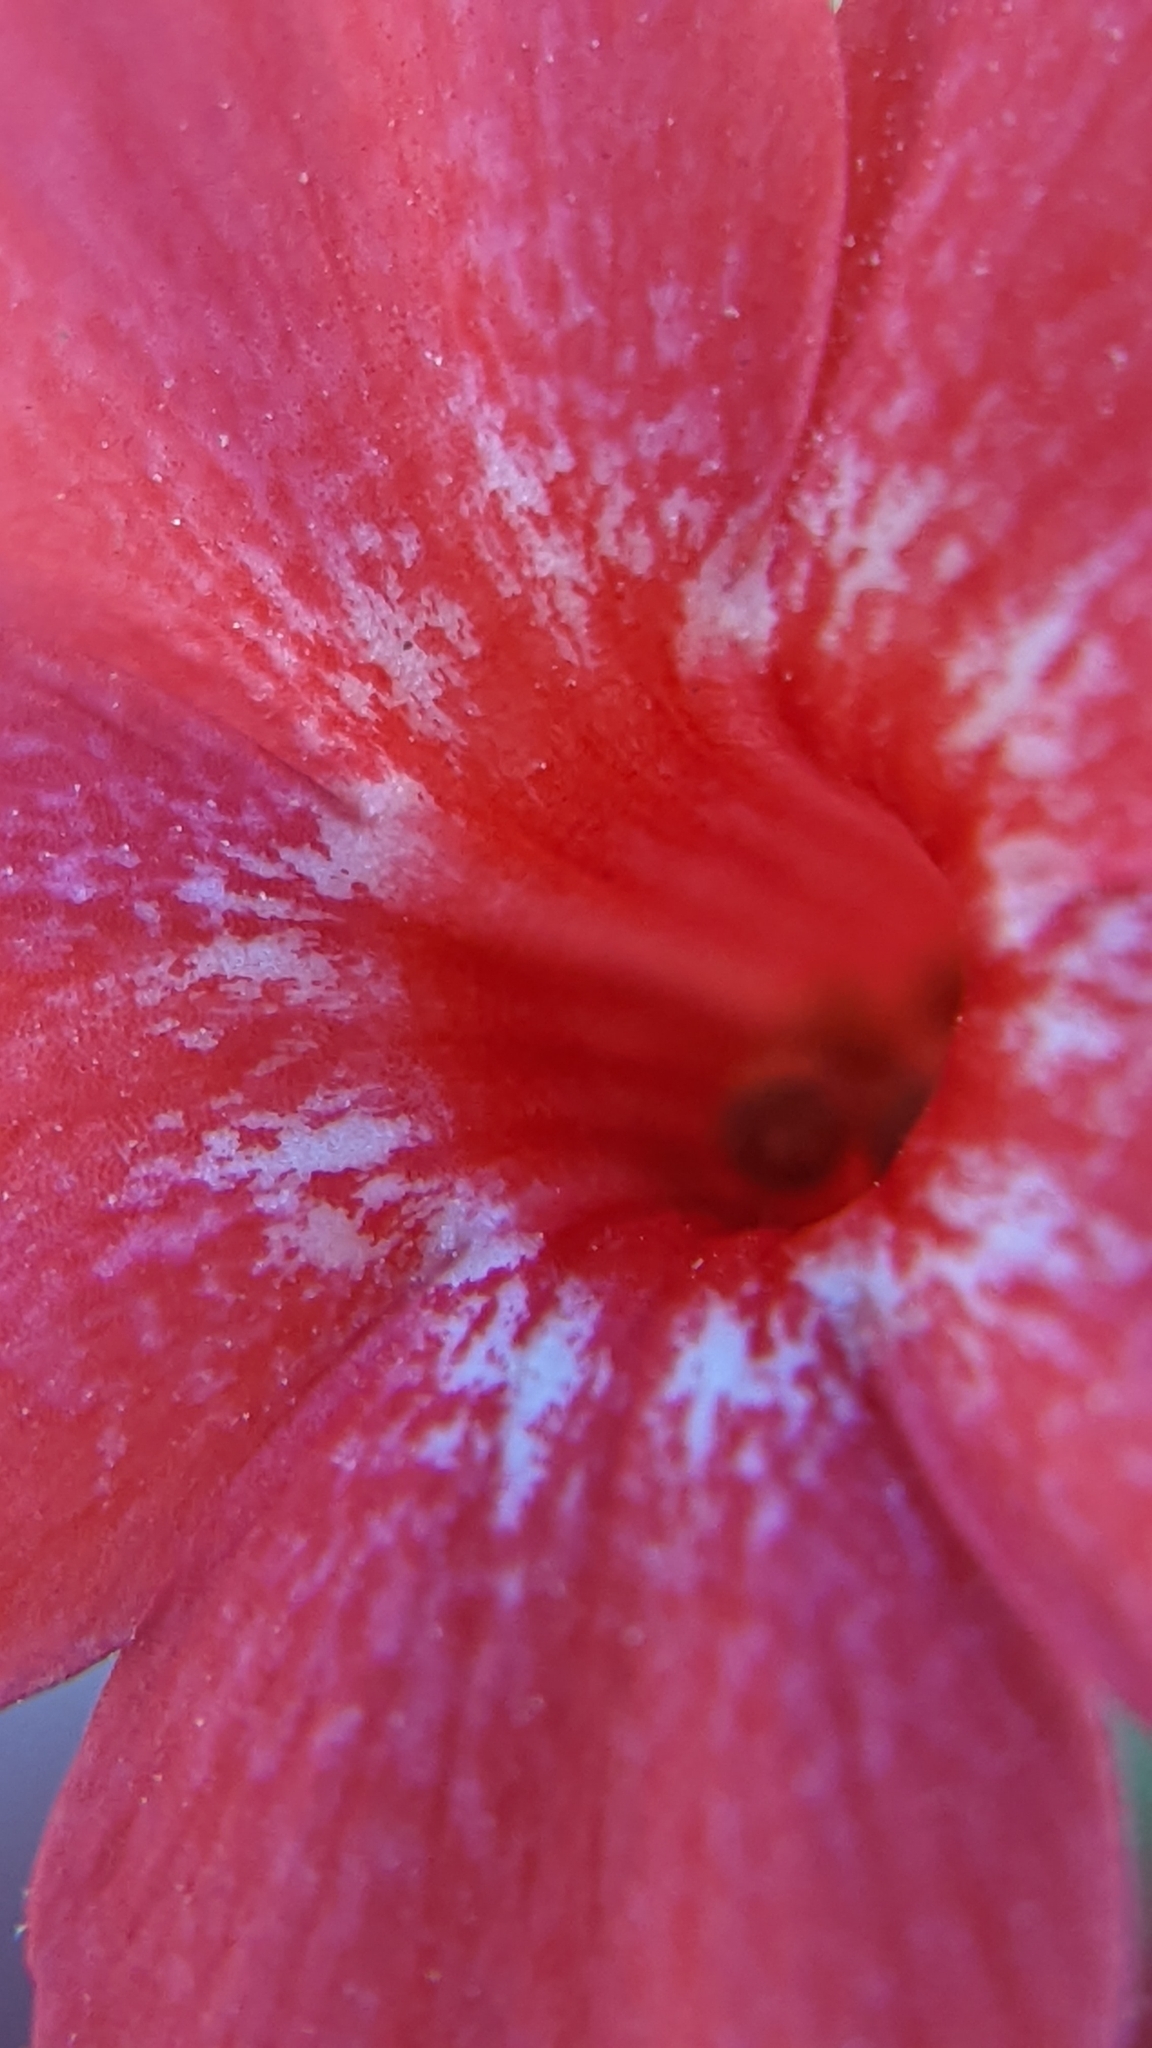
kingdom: Plantae
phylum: Tracheophyta
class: Magnoliopsida
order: Ericales
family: Polemoniaceae
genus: Ipomopsis
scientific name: Ipomopsis arizonica
